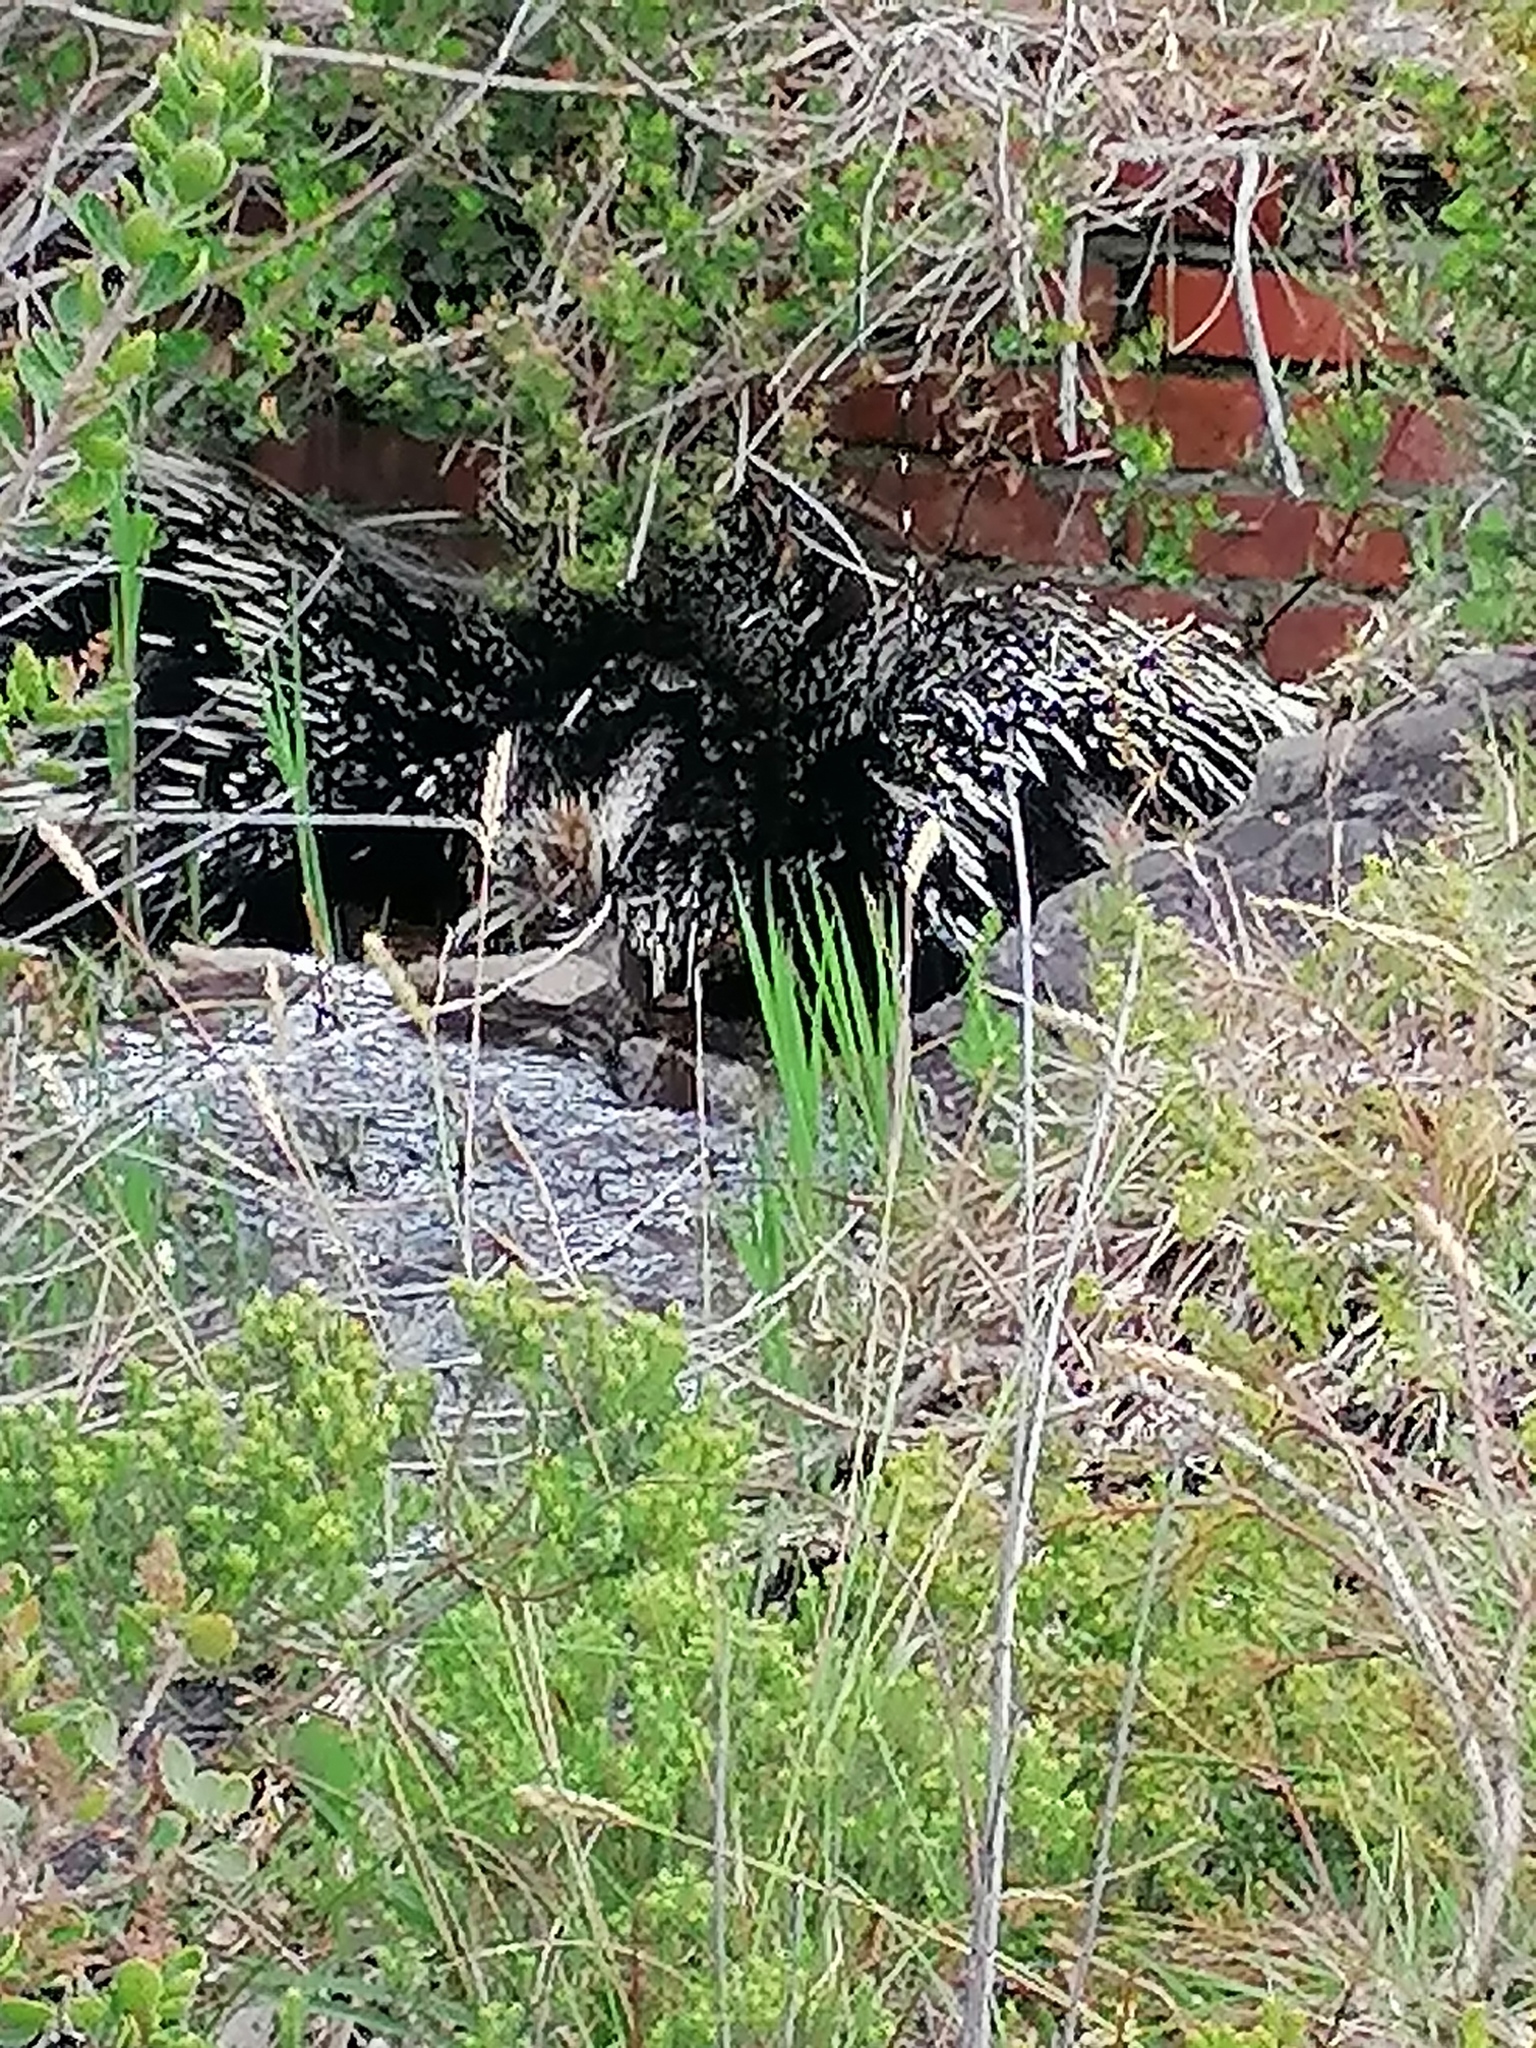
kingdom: Animalia
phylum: Chordata
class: Mammalia
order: Rodentia
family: Hystricidae
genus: Hystrix
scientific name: Hystrix africaeaustralis
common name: Cape porcupine
